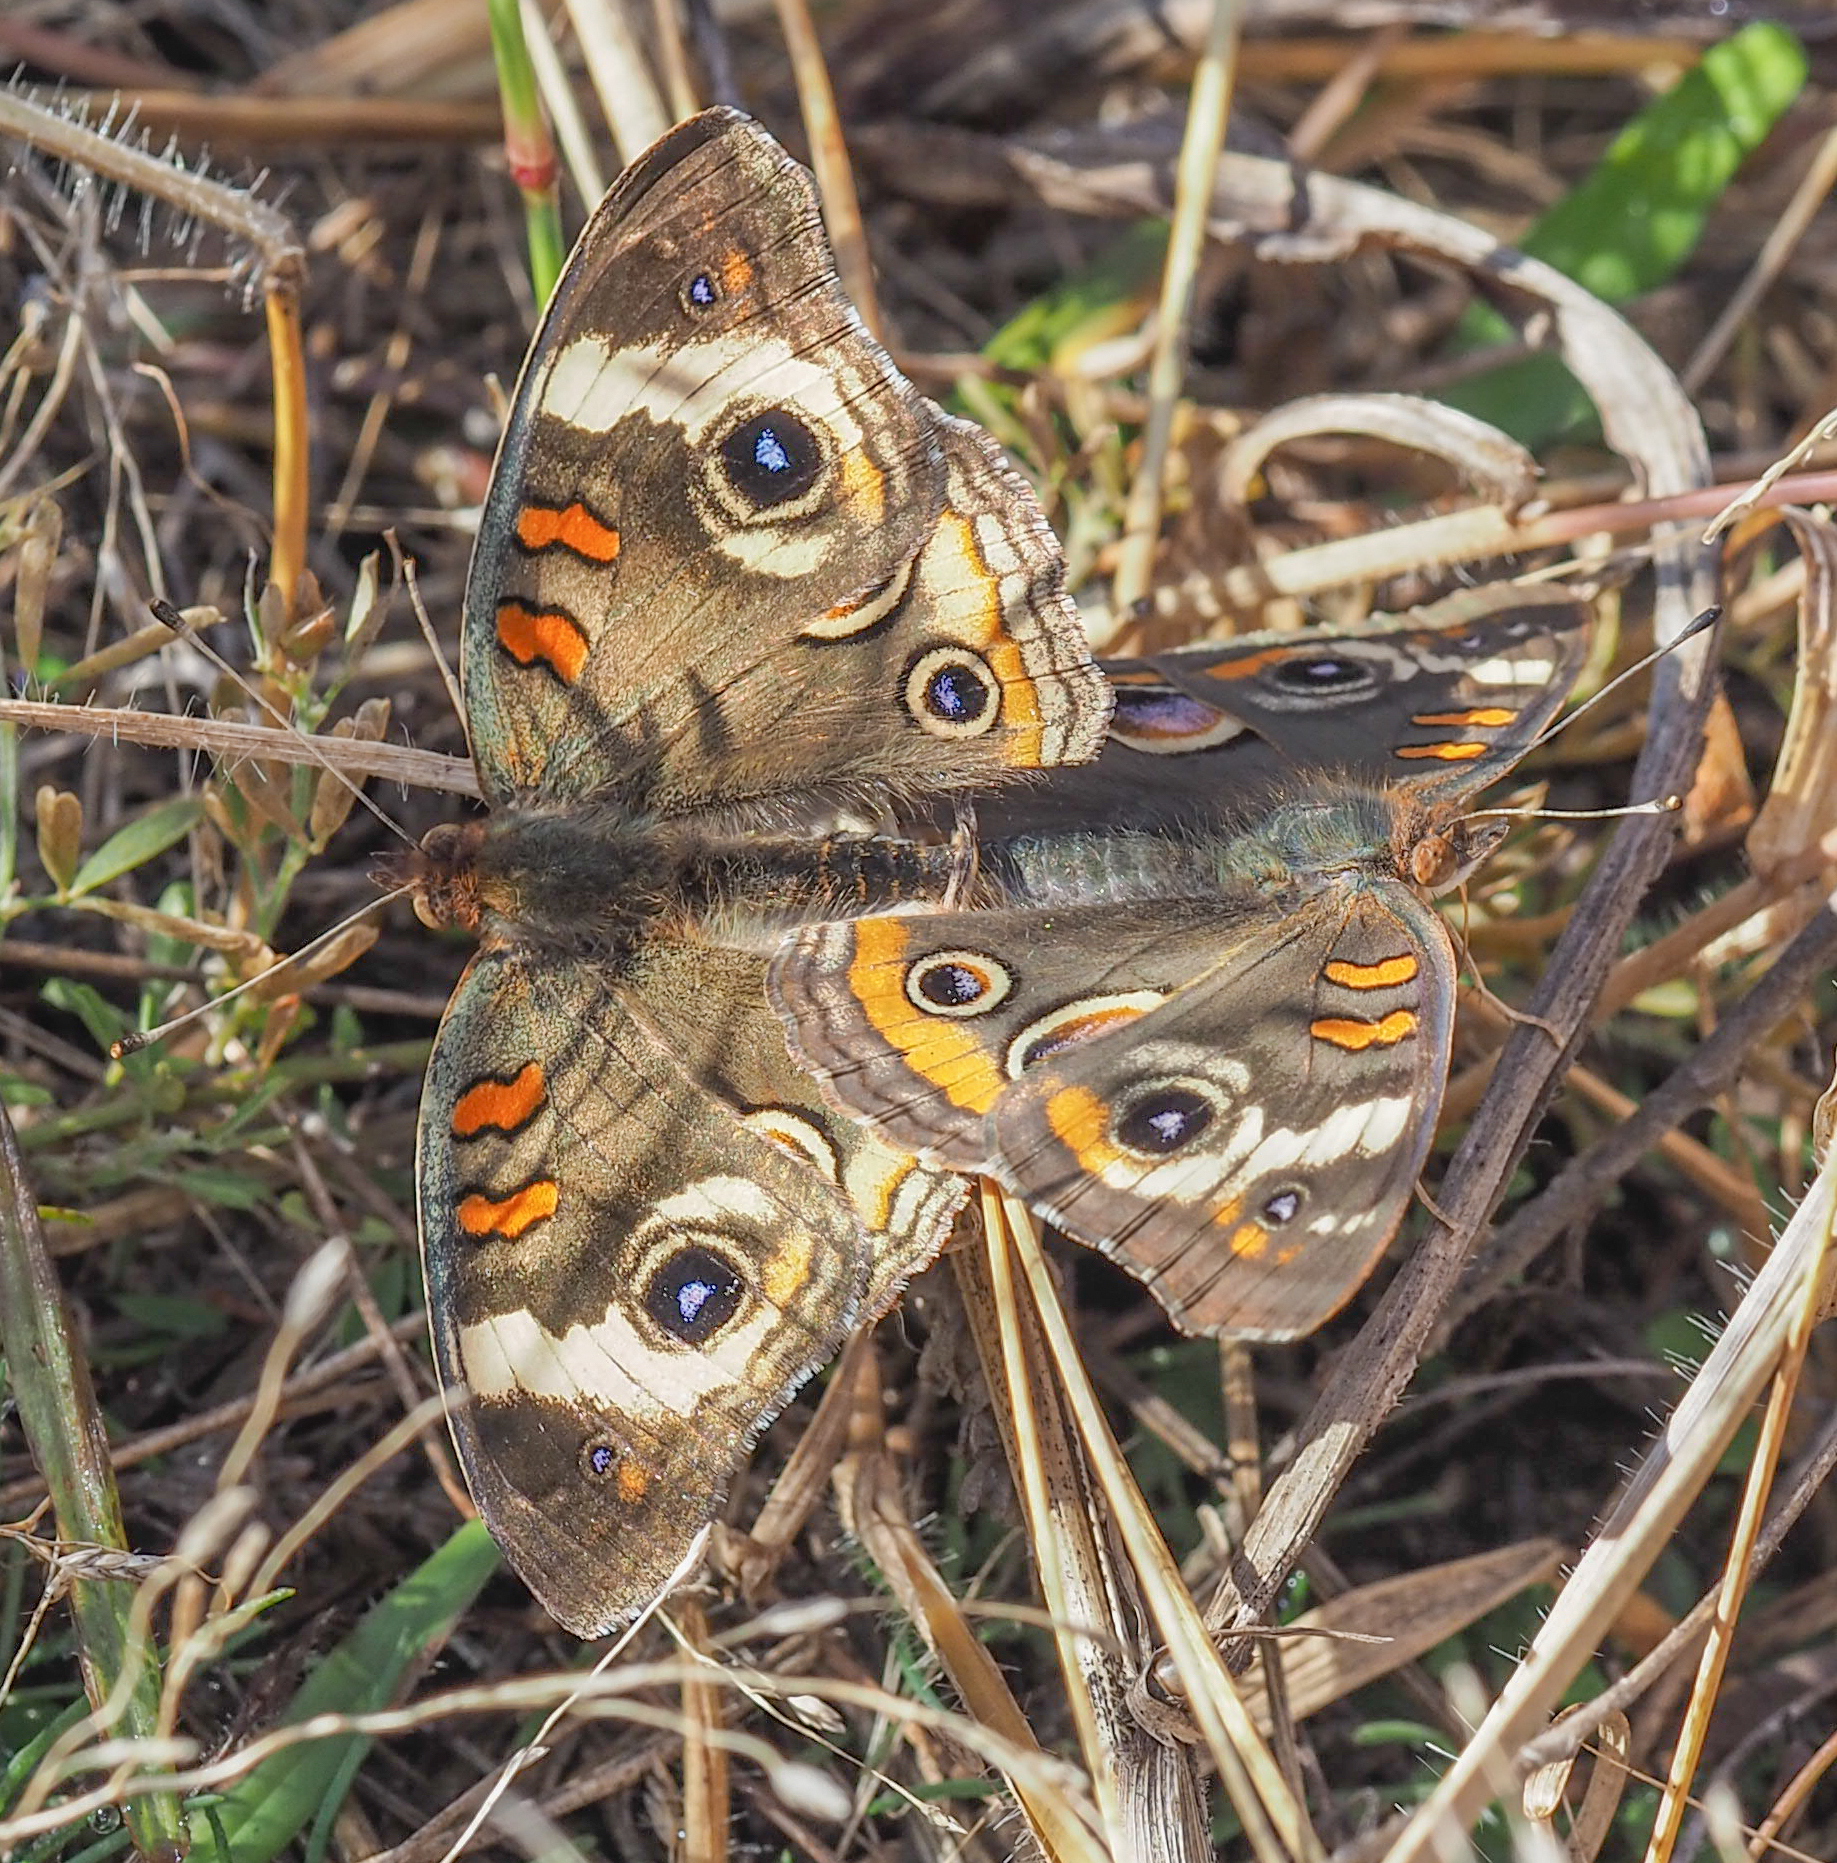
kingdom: Animalia
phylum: Arthropoda
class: Insecta
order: Lepidoptera
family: Nymphalidae
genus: Junonia
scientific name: Junonia coenia
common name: Common buckeye
